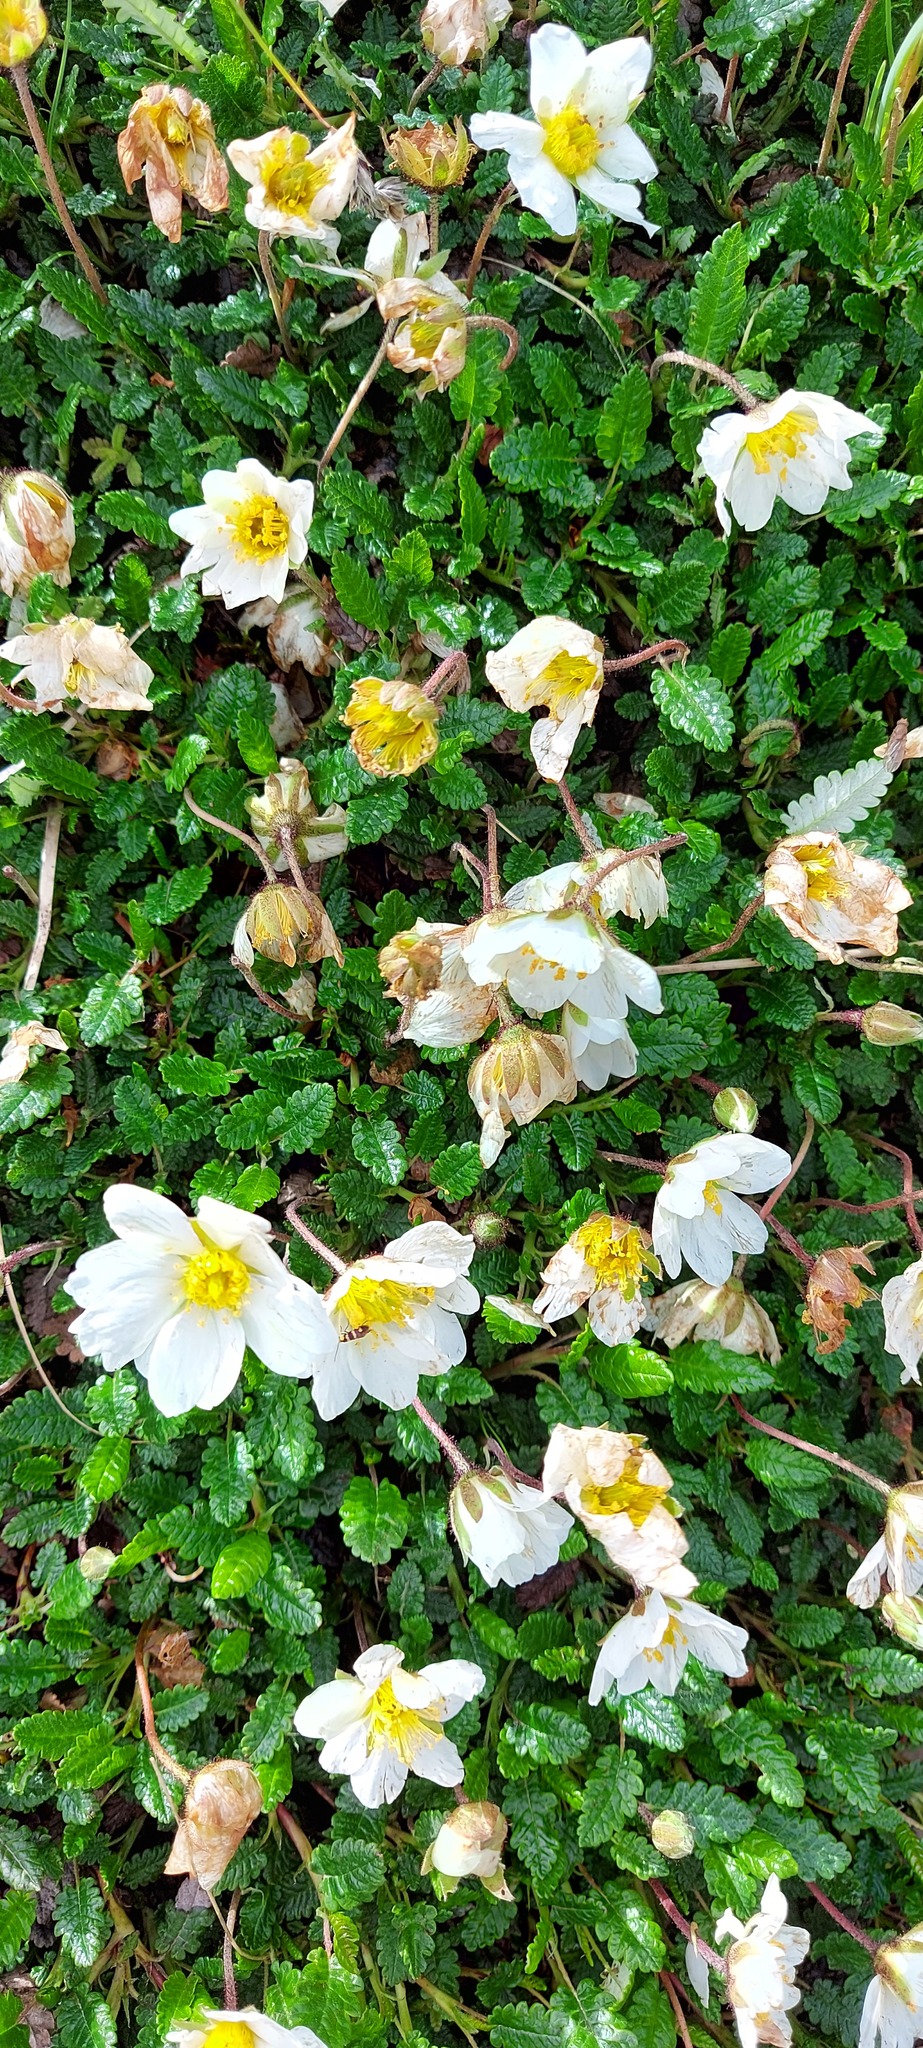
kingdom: Plantae
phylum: Tracheophyta
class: Magnoliopsida
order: Rosales
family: Rosaceae
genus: Dryas
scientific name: Dryas octopetala
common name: Eight-petal mountain-avens
